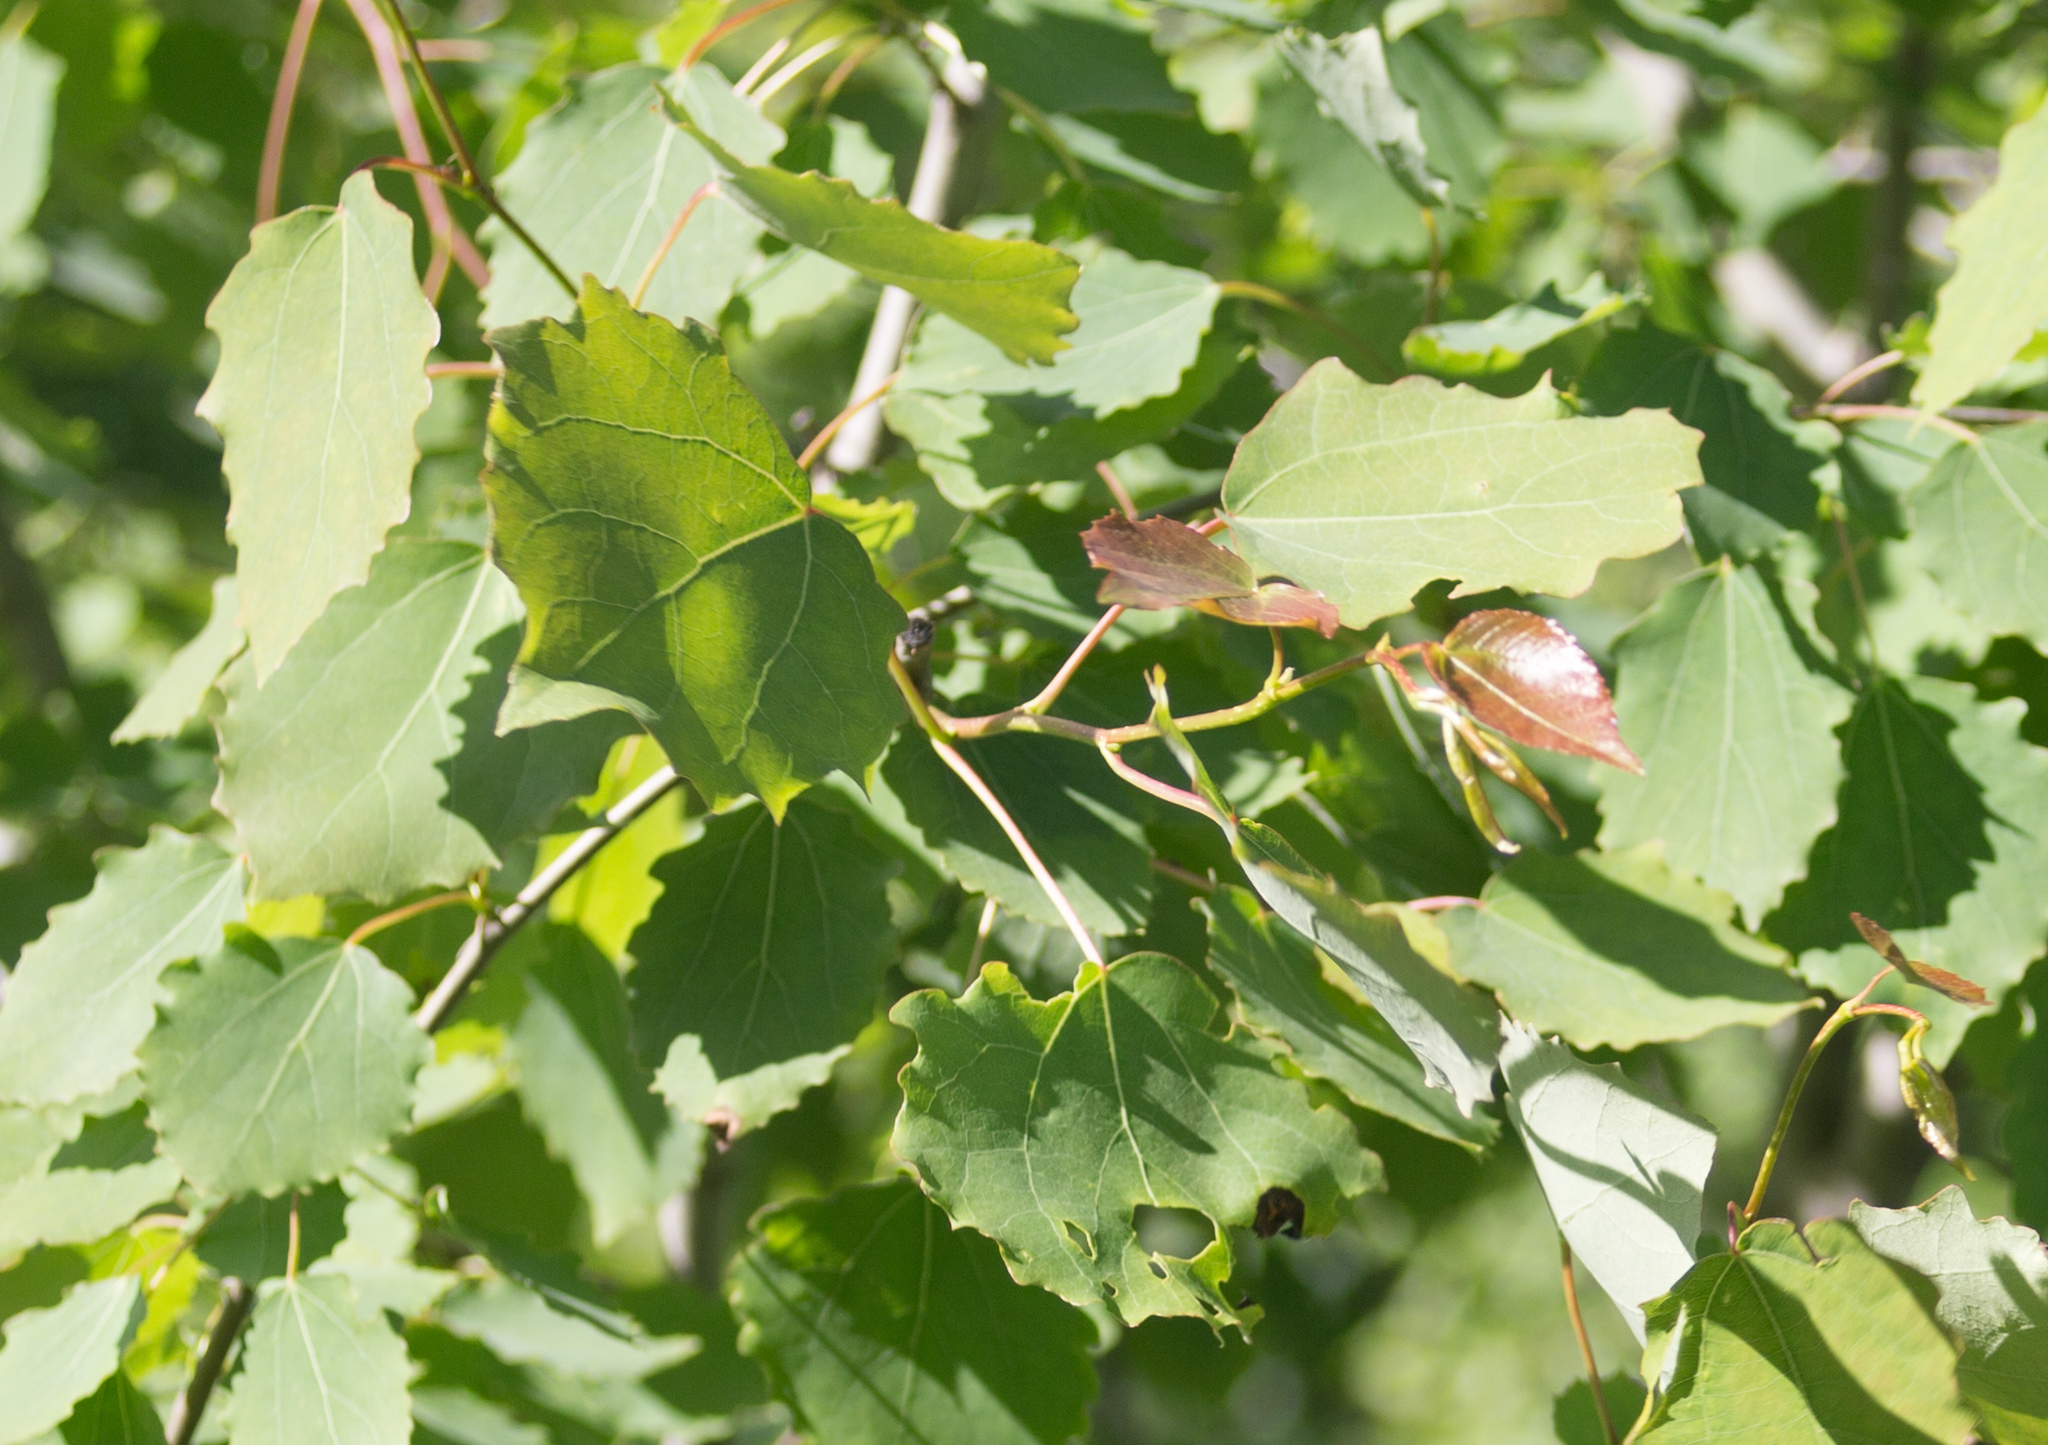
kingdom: Plantae
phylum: Tracheophyta
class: Magnoliopsida
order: Malpighiales
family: Salicaceae
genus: Populus
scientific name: Populus tremula
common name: European aspen
